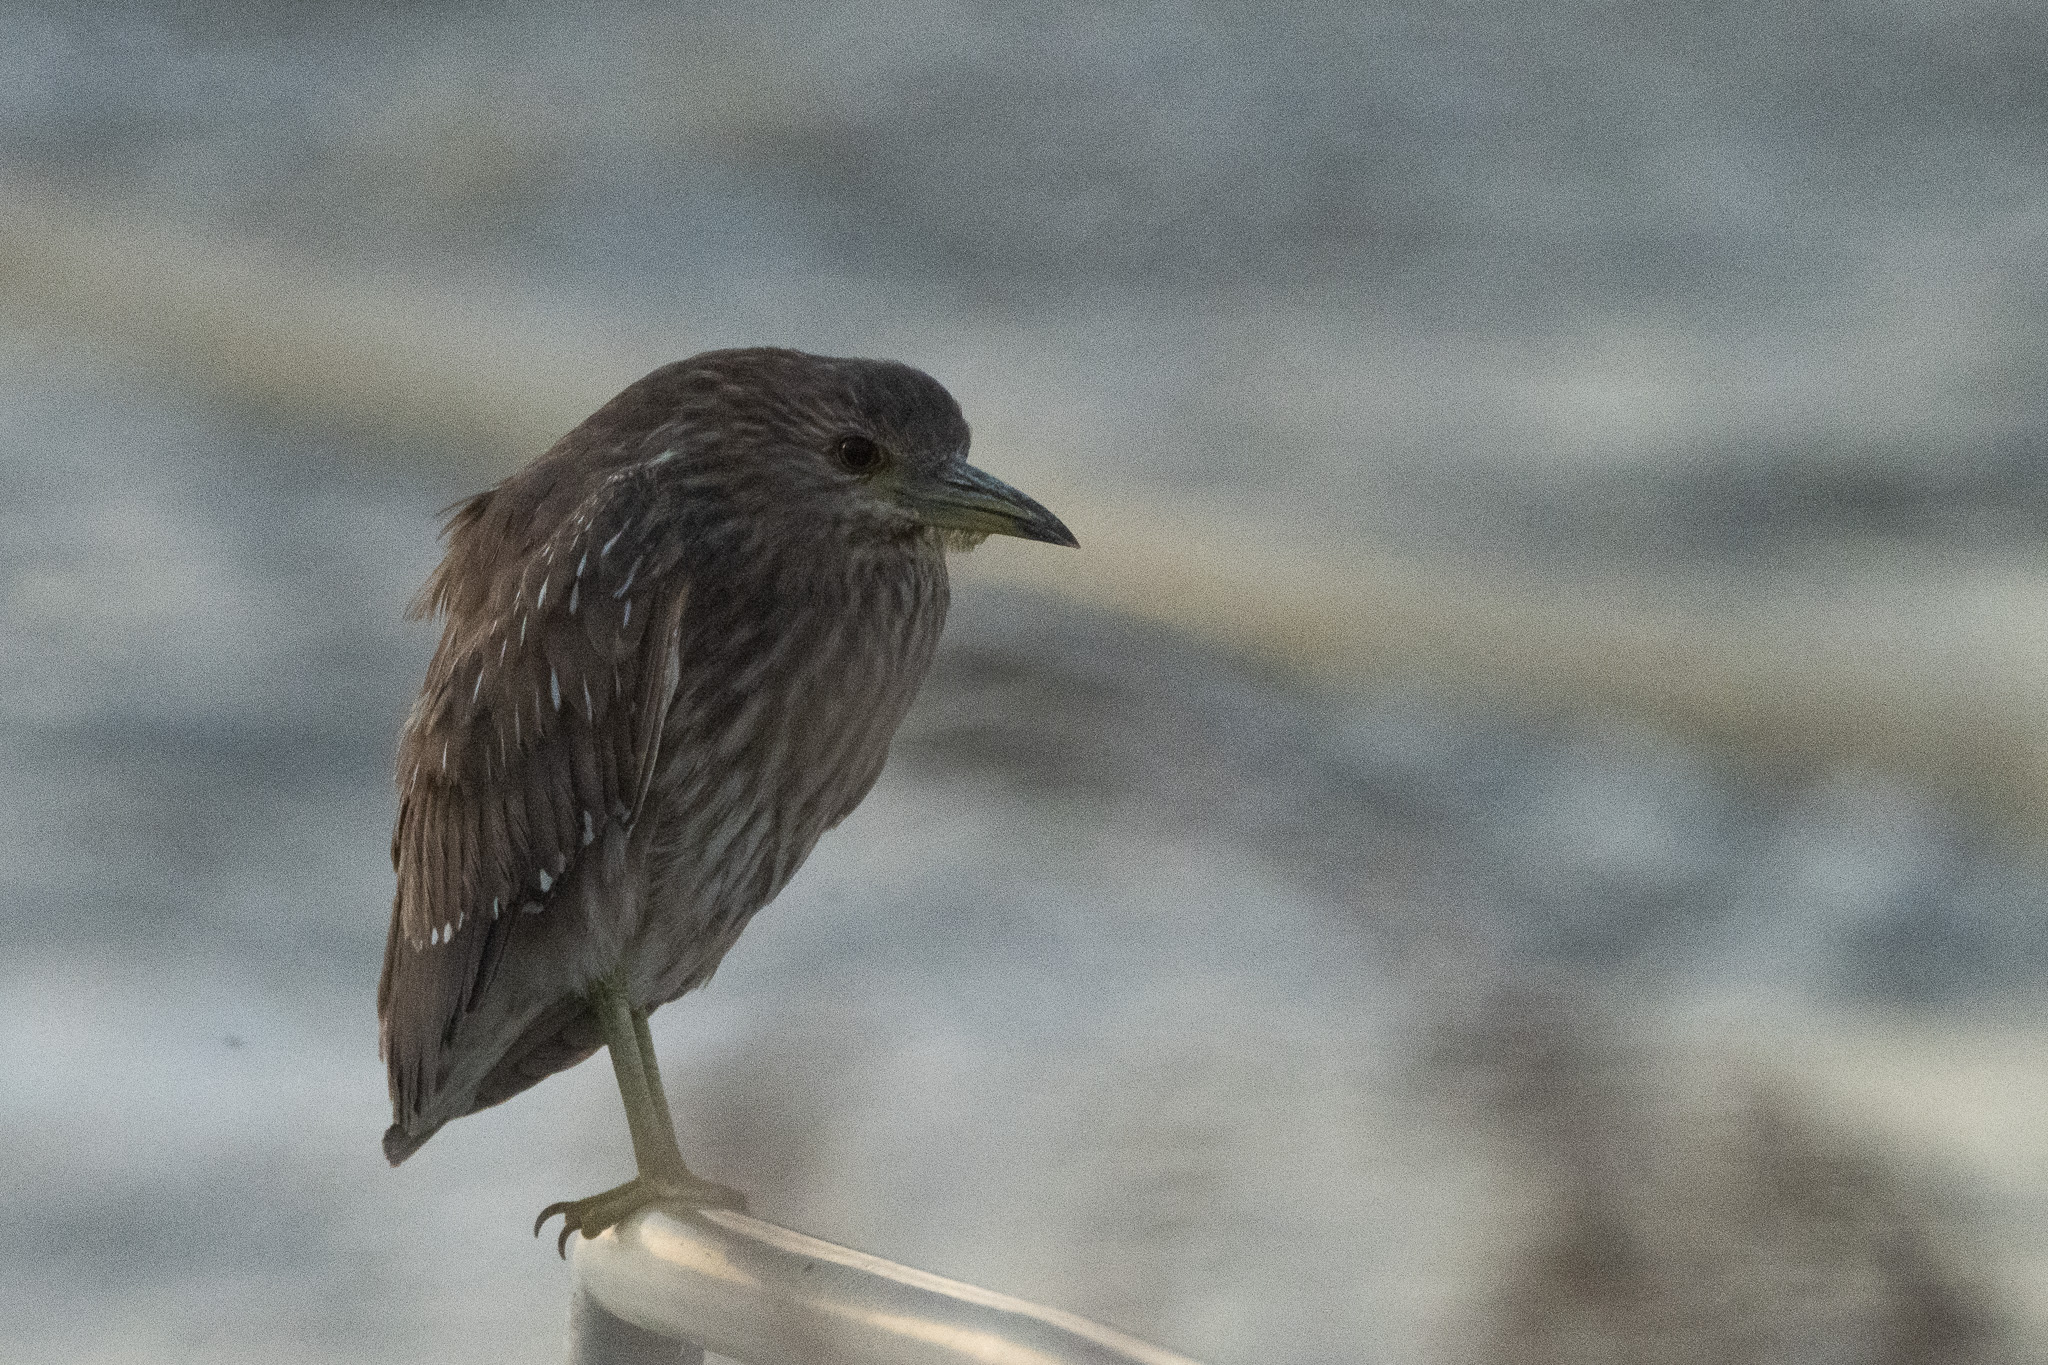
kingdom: Animalia
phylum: Chordata
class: Aves
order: Pelecaniformes
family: Ardeidae
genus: Nycticorax
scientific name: Nycticorax nycticorax
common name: Black-crowned night heron
